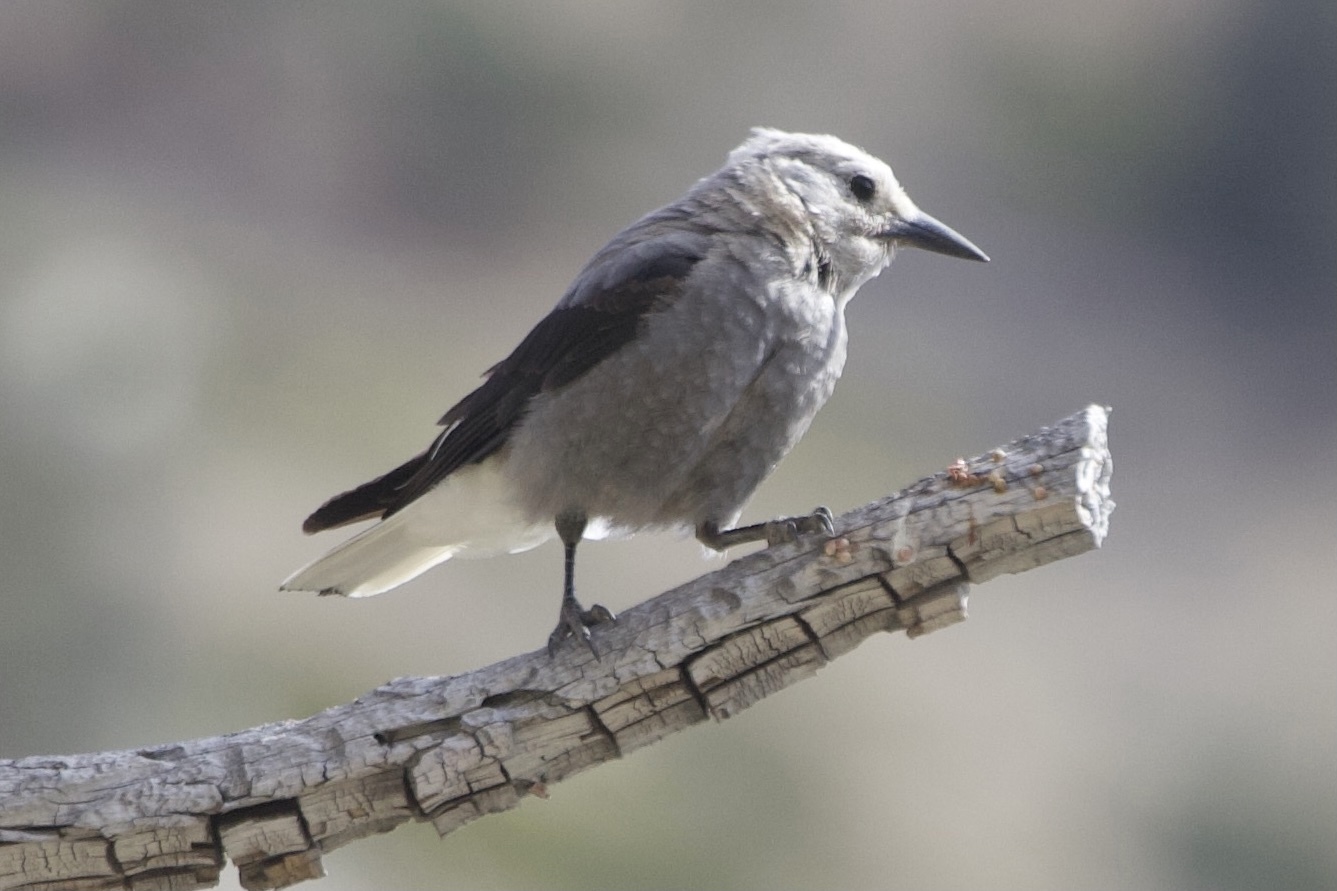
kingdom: Animalia
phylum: Chordata
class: Aves
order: Passeriformes
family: Corvidae
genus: Nucifraga
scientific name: Nucifraga columbiana
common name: Clark's nutcracker
